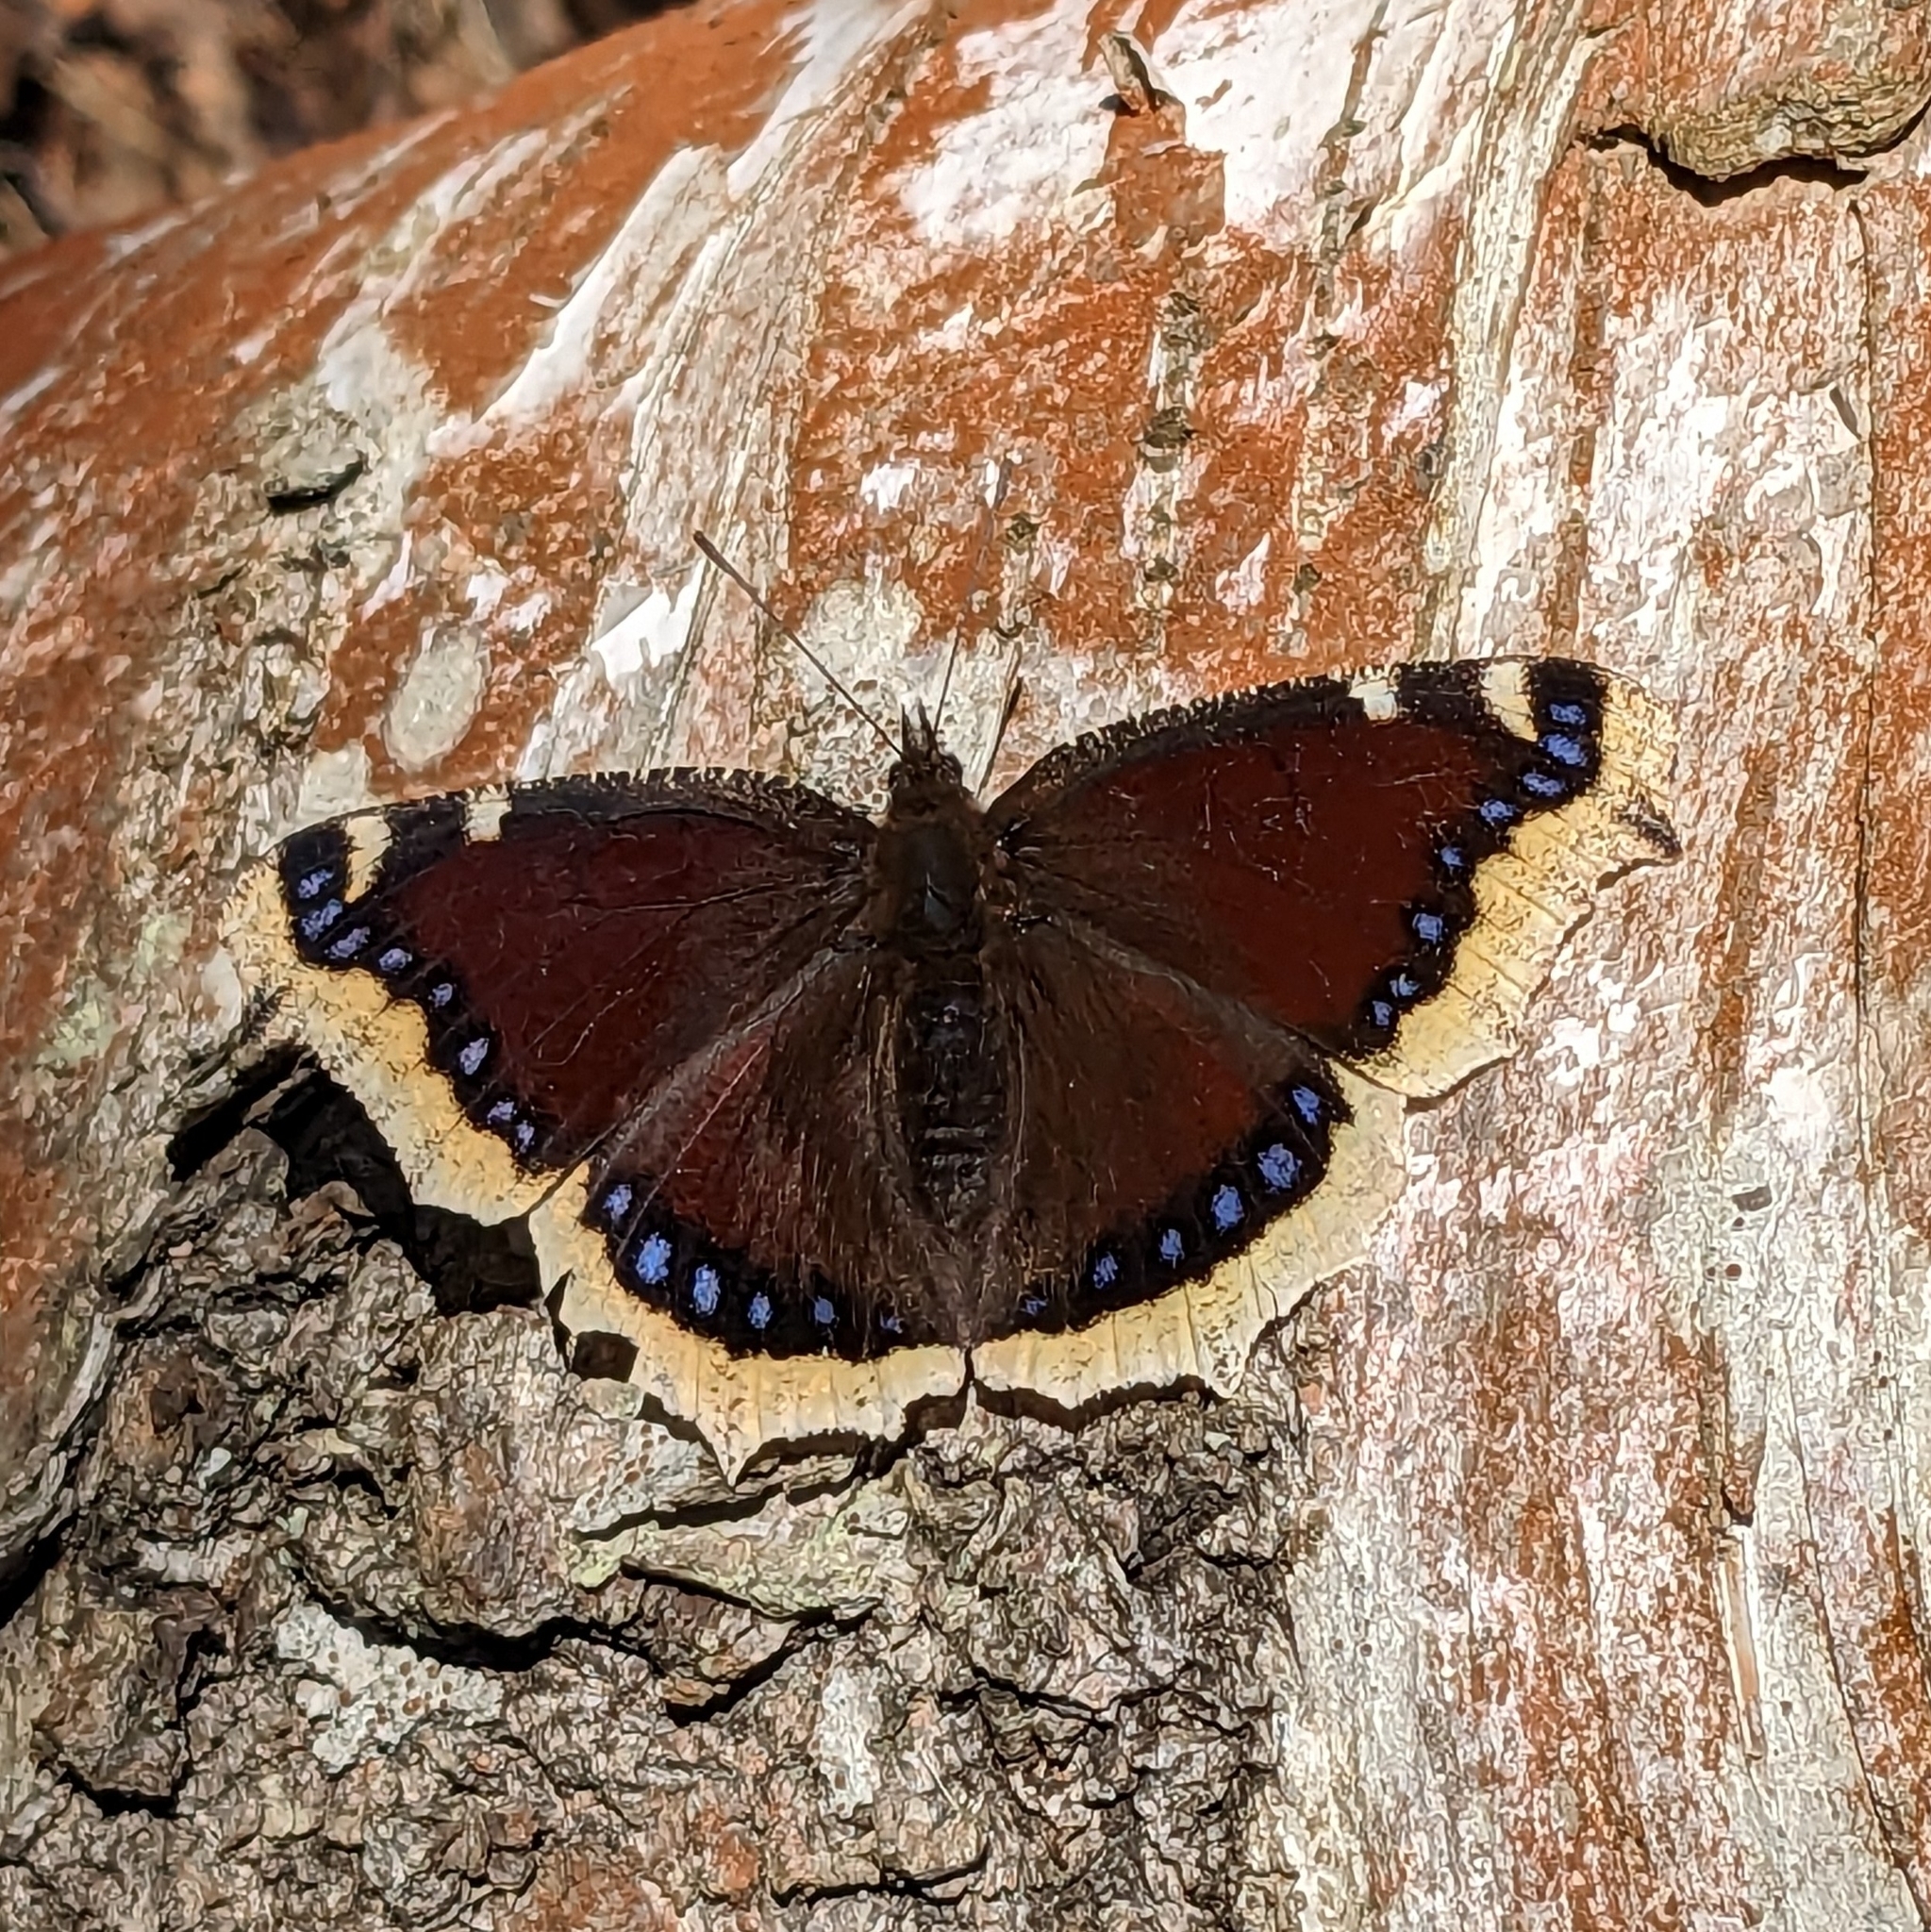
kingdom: Animalia
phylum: Arthropoda
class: Insecta
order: Lepidoptera
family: Nymphalidae
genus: Nymphalis
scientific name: Nymphalis antiopa
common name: Camberwell beauty
